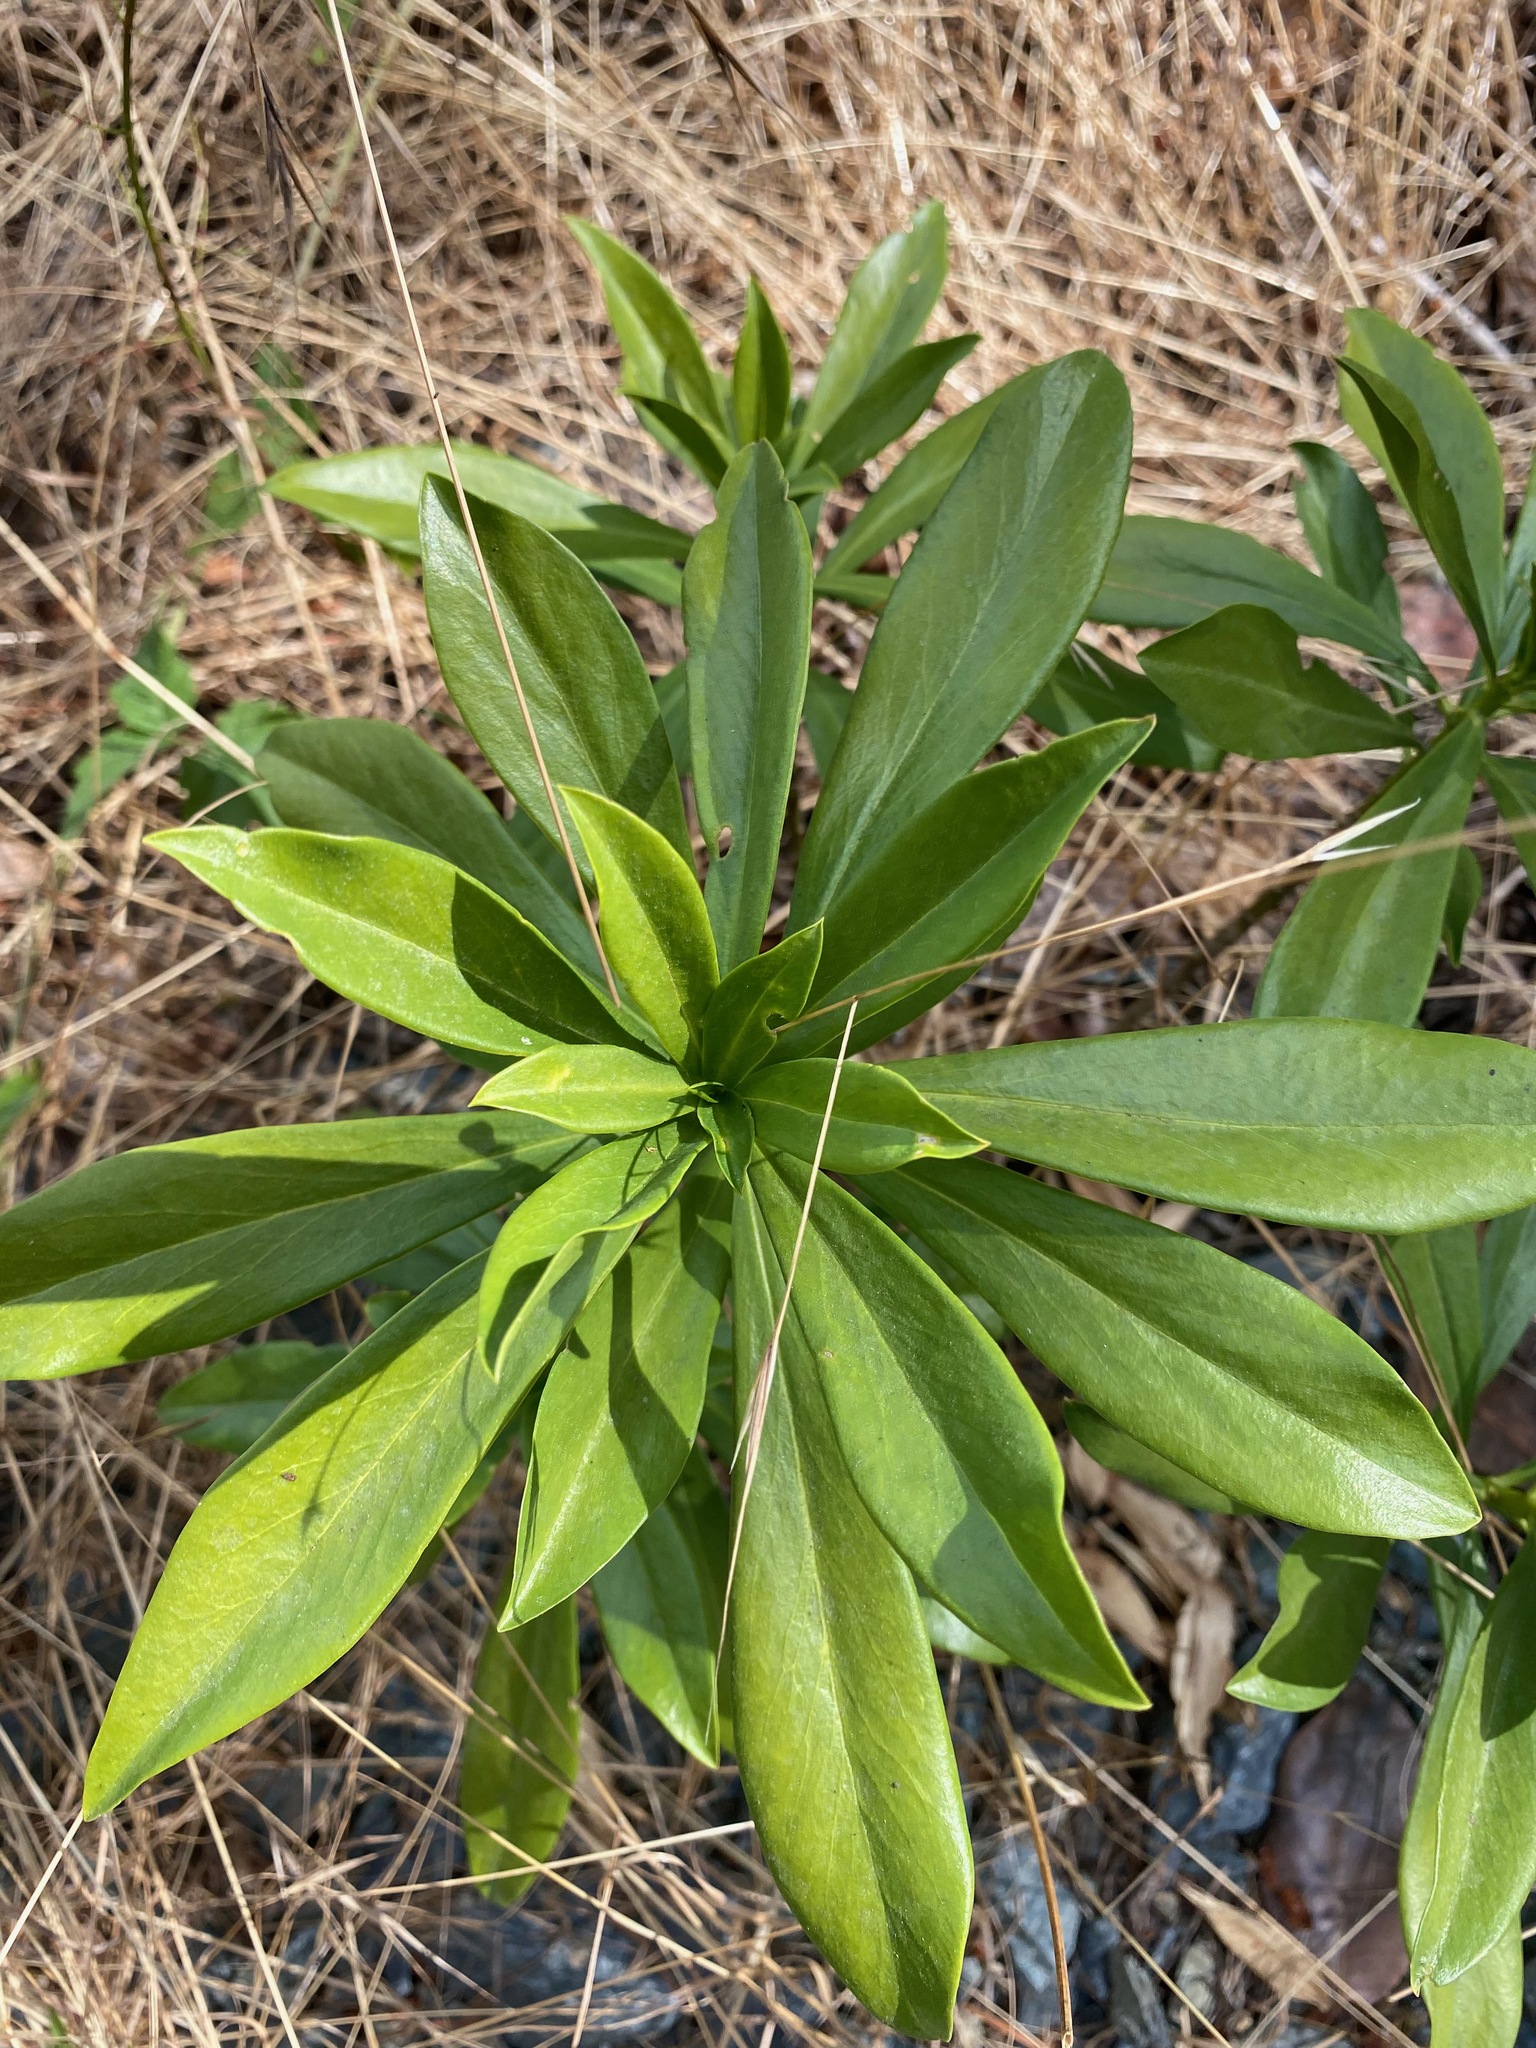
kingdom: Plantae
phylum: Tracheophyta
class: Magnoliopsida
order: Malvales
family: Thymelaeaceae
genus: Daphne
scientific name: Daphne laureola
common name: Spurge-laurel
